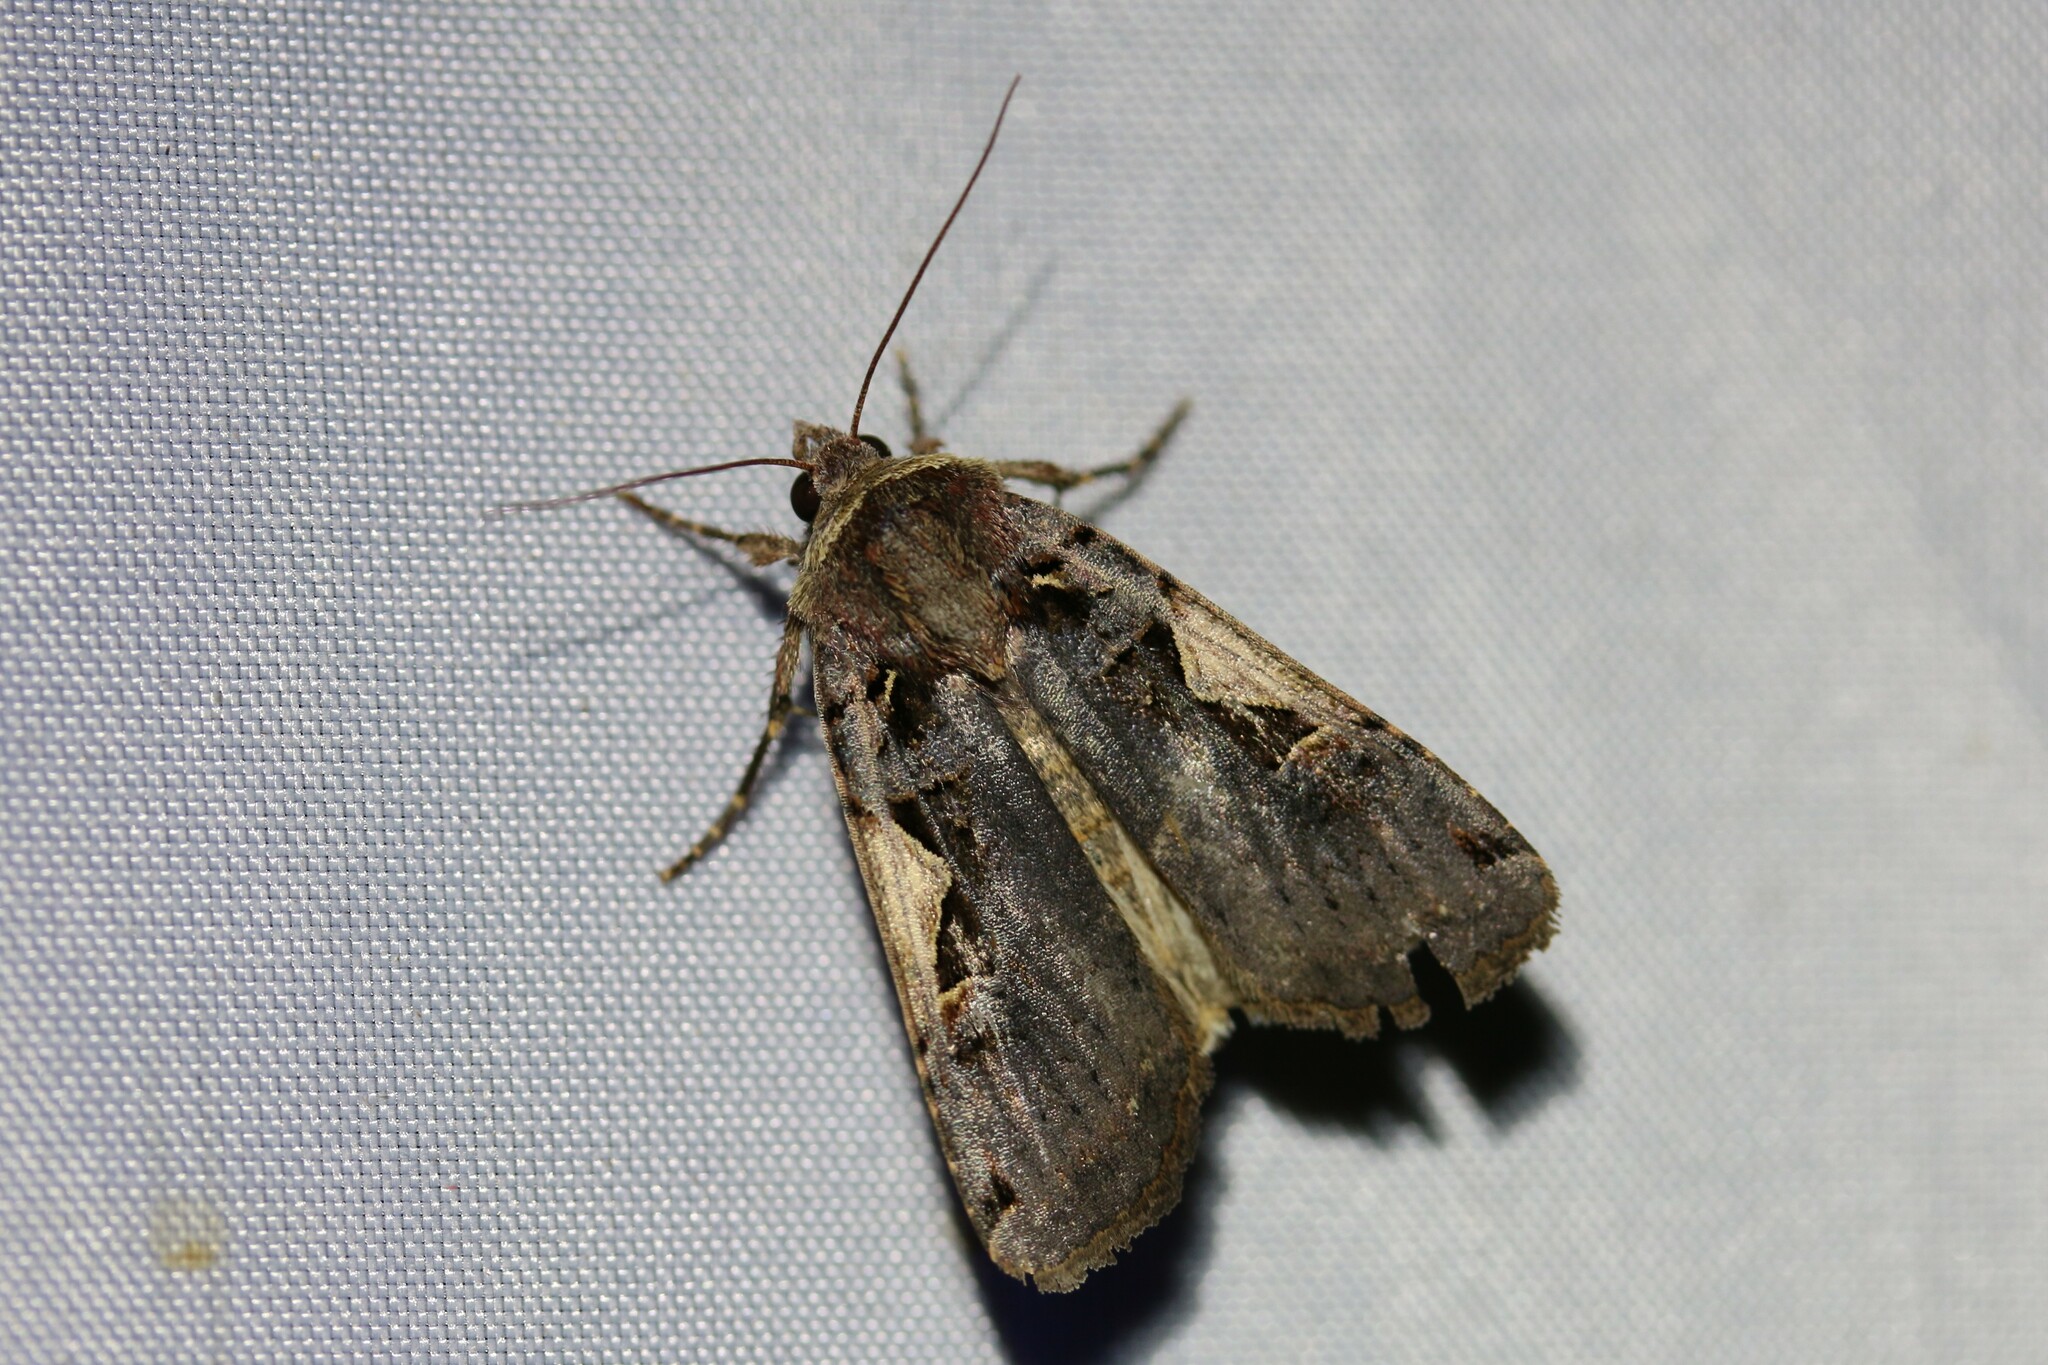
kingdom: Animalia
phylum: Arthropoda
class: Insecta
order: Lepidoptera
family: Noctuidae
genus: Xestia
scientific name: Xestia c-nigrum
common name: Setaceous hebrew character
